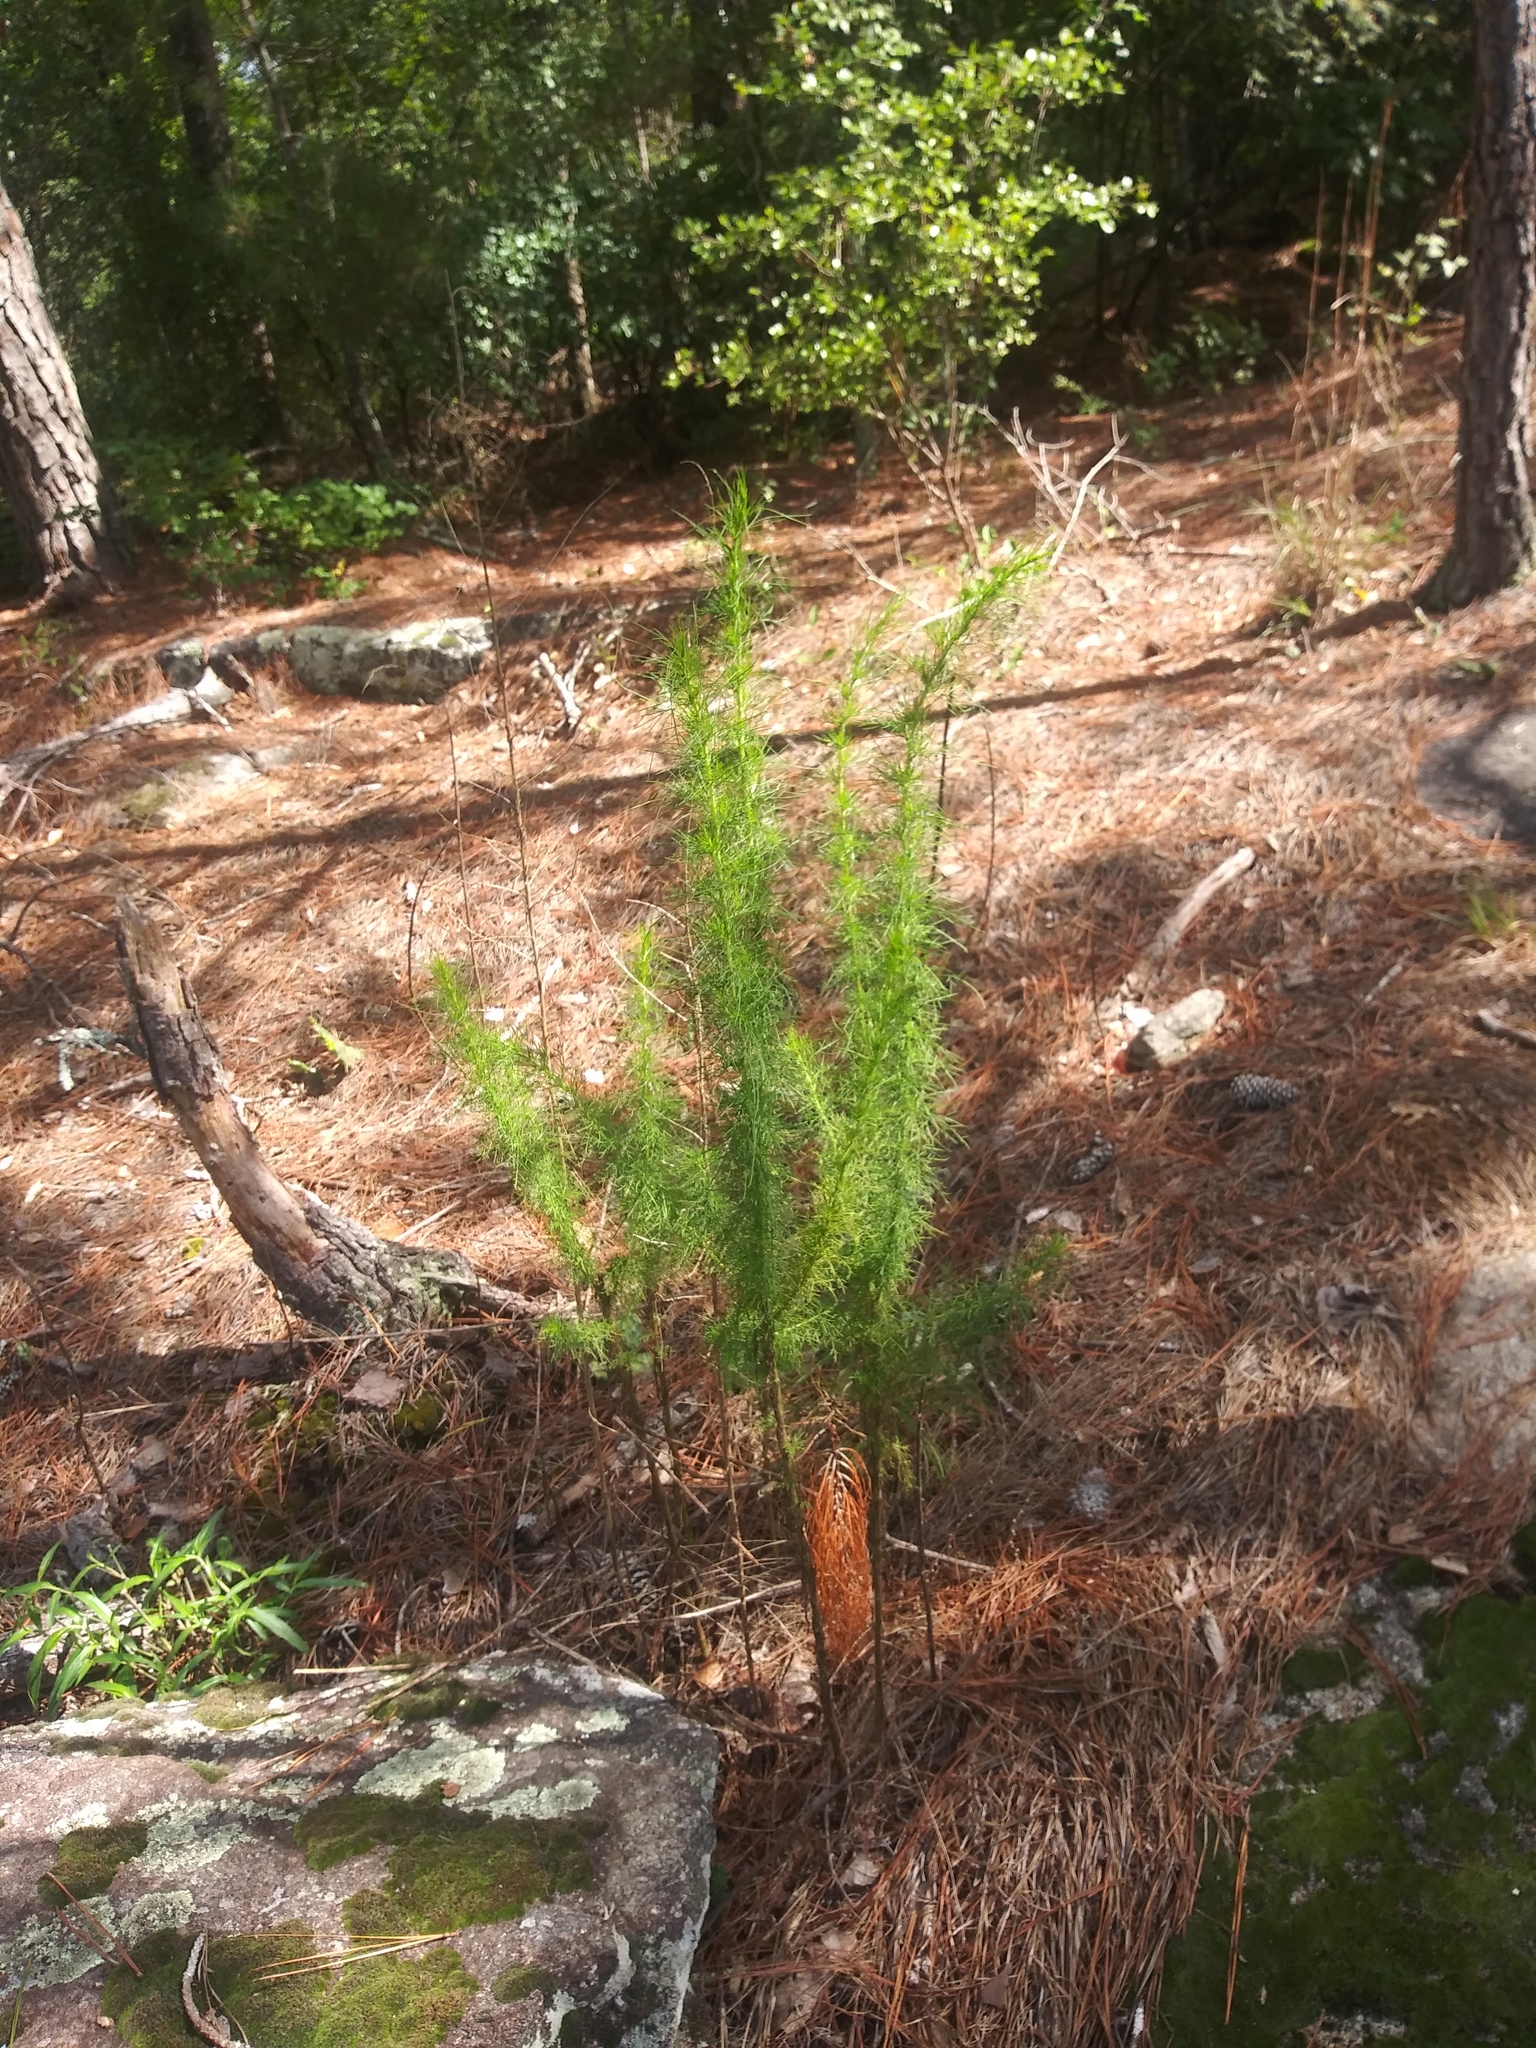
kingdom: Plantae
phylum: Tracheophyta
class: Magnoliopsida
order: Asterales
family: Asteraceae
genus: Eupatorium
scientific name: Eupatorium capillifolium
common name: Dog-fennel
